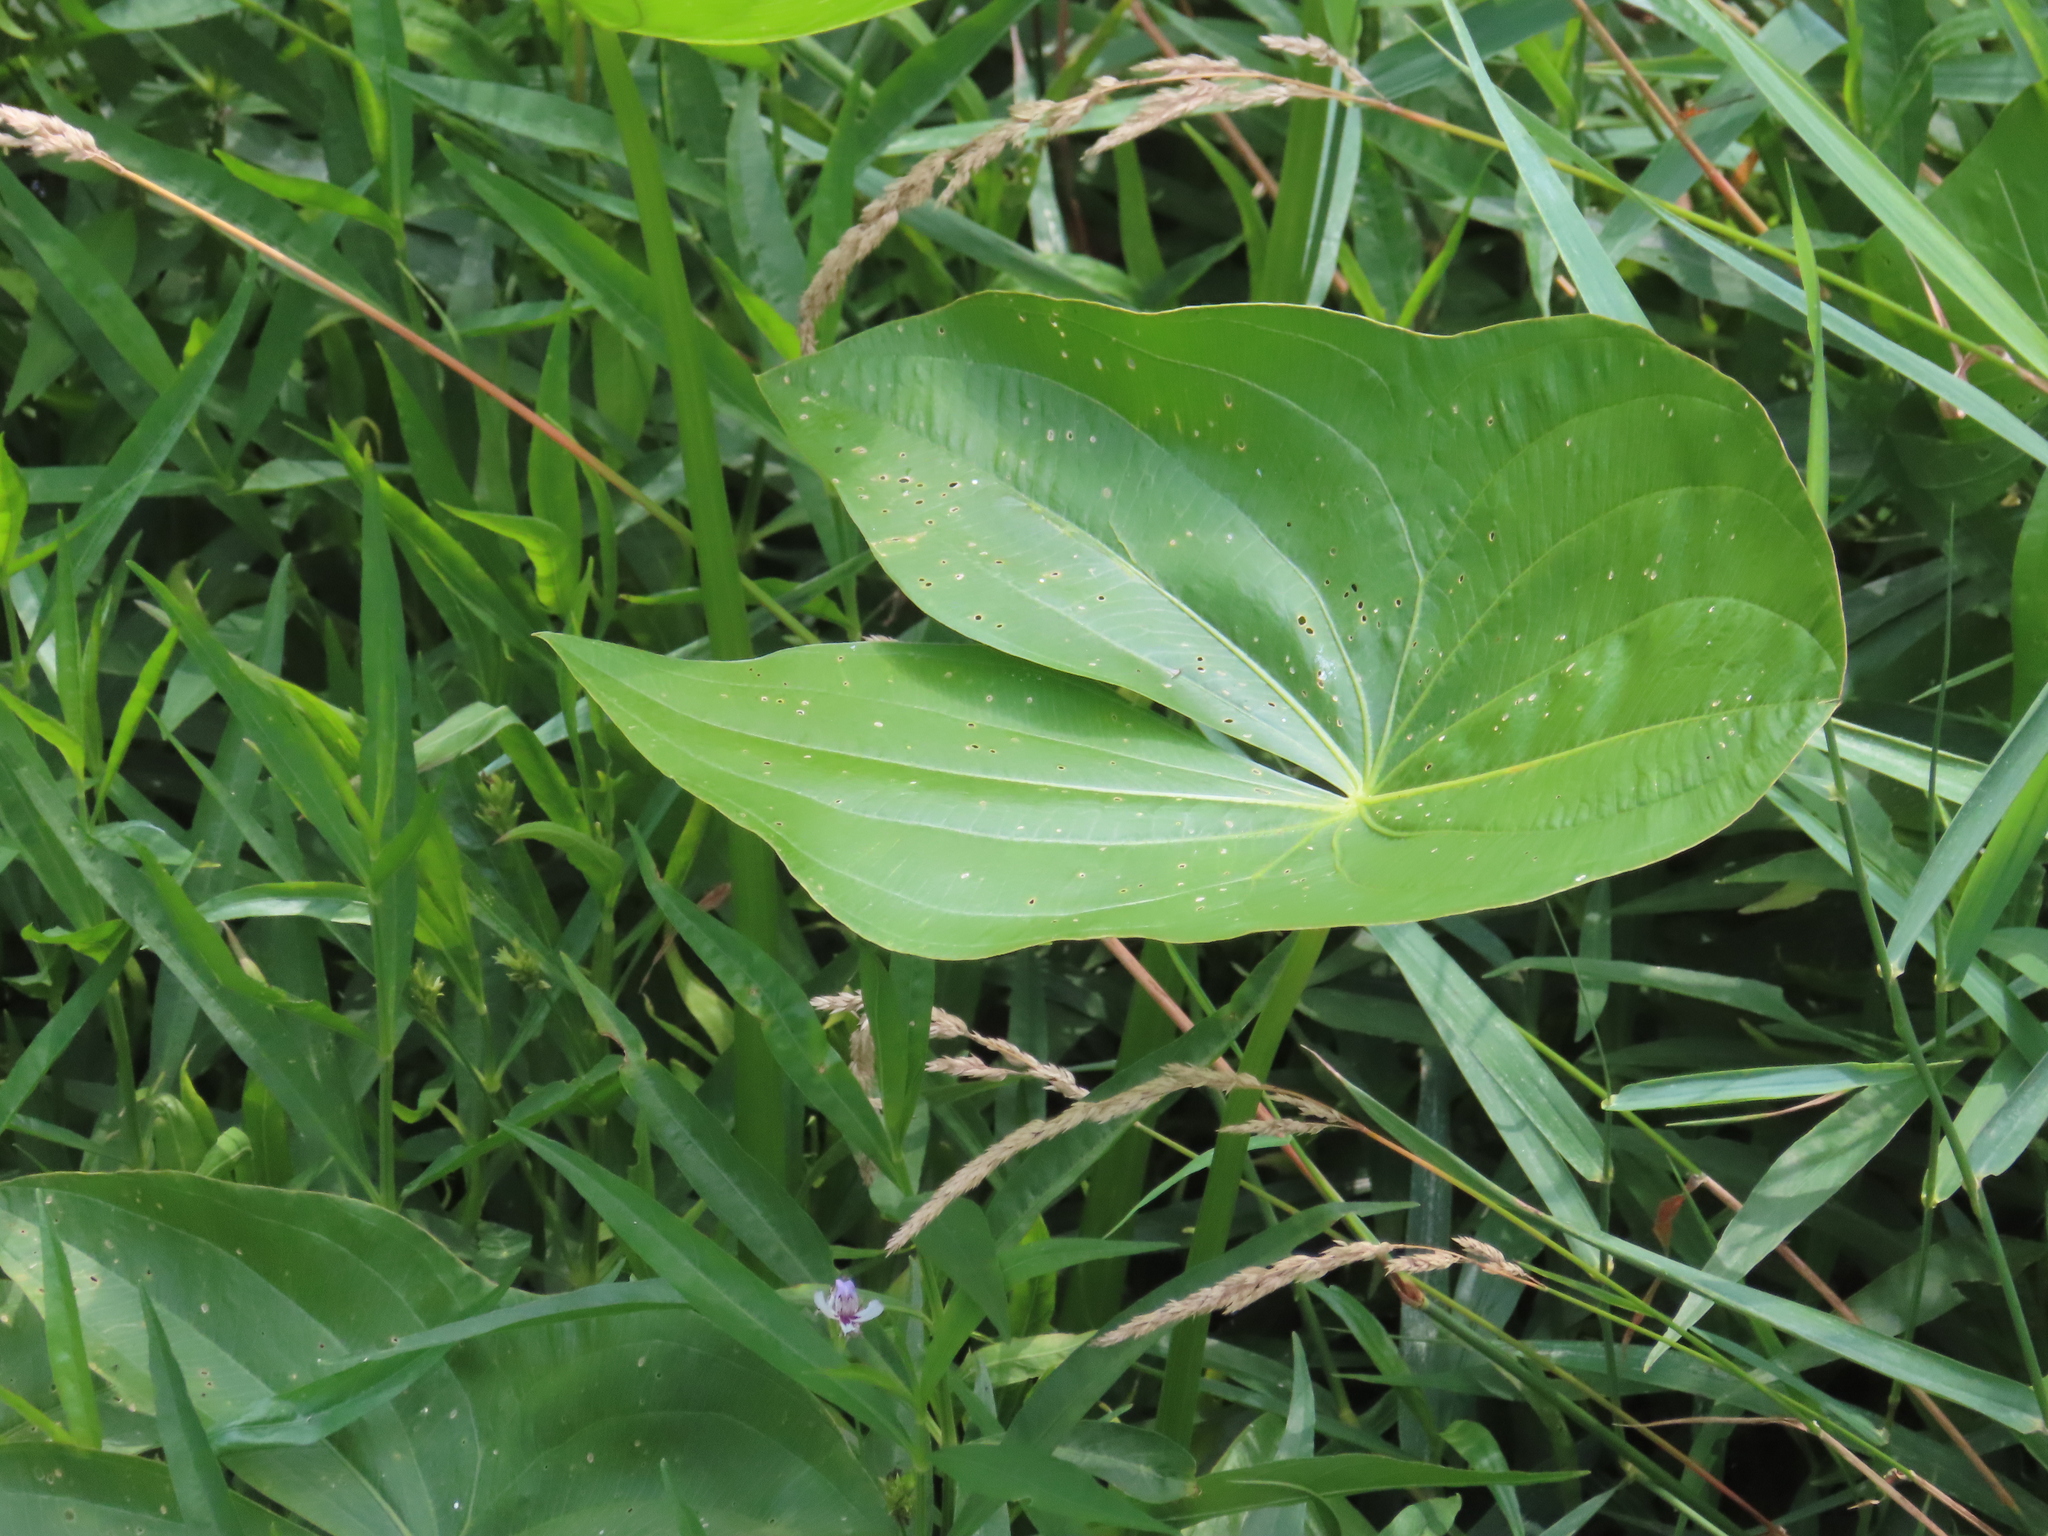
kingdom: Plantae
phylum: Tracheophyta
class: Liliopsida
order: Alismatales
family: Alismataceae
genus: Sagittaria
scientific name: Sagittaria
